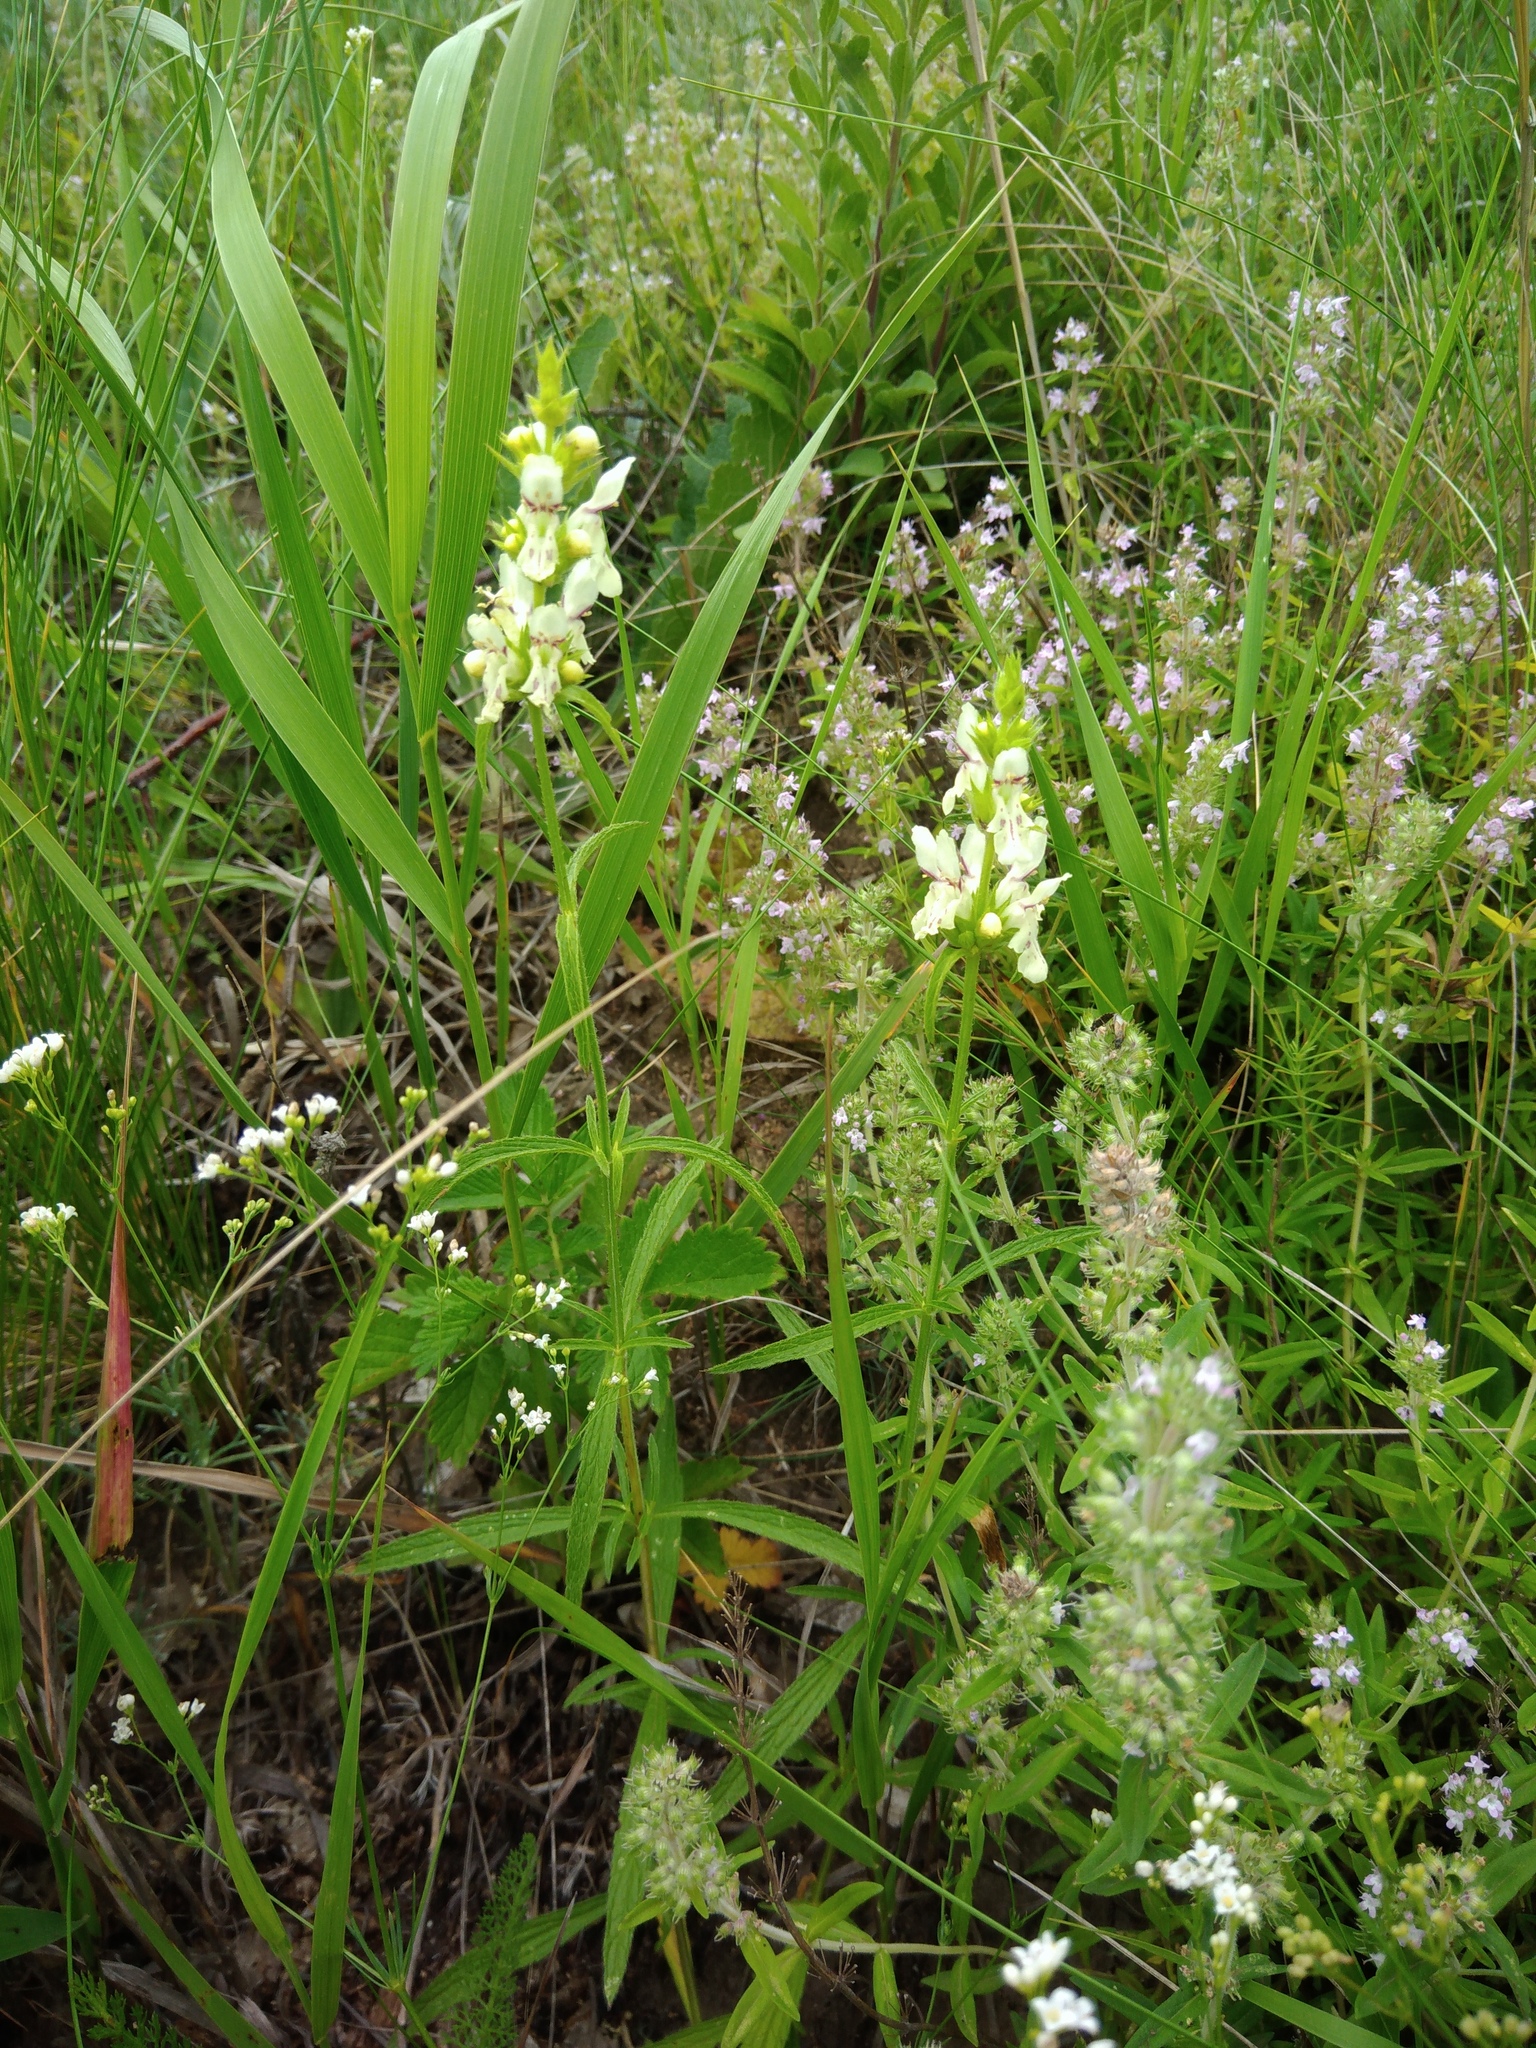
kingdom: Plantae
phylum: Tracheophyta
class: Magnoliopsida
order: Lamiales
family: Lamiaceae
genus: Stachys
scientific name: Stachys recta
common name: Perennial yellow-woundwort
